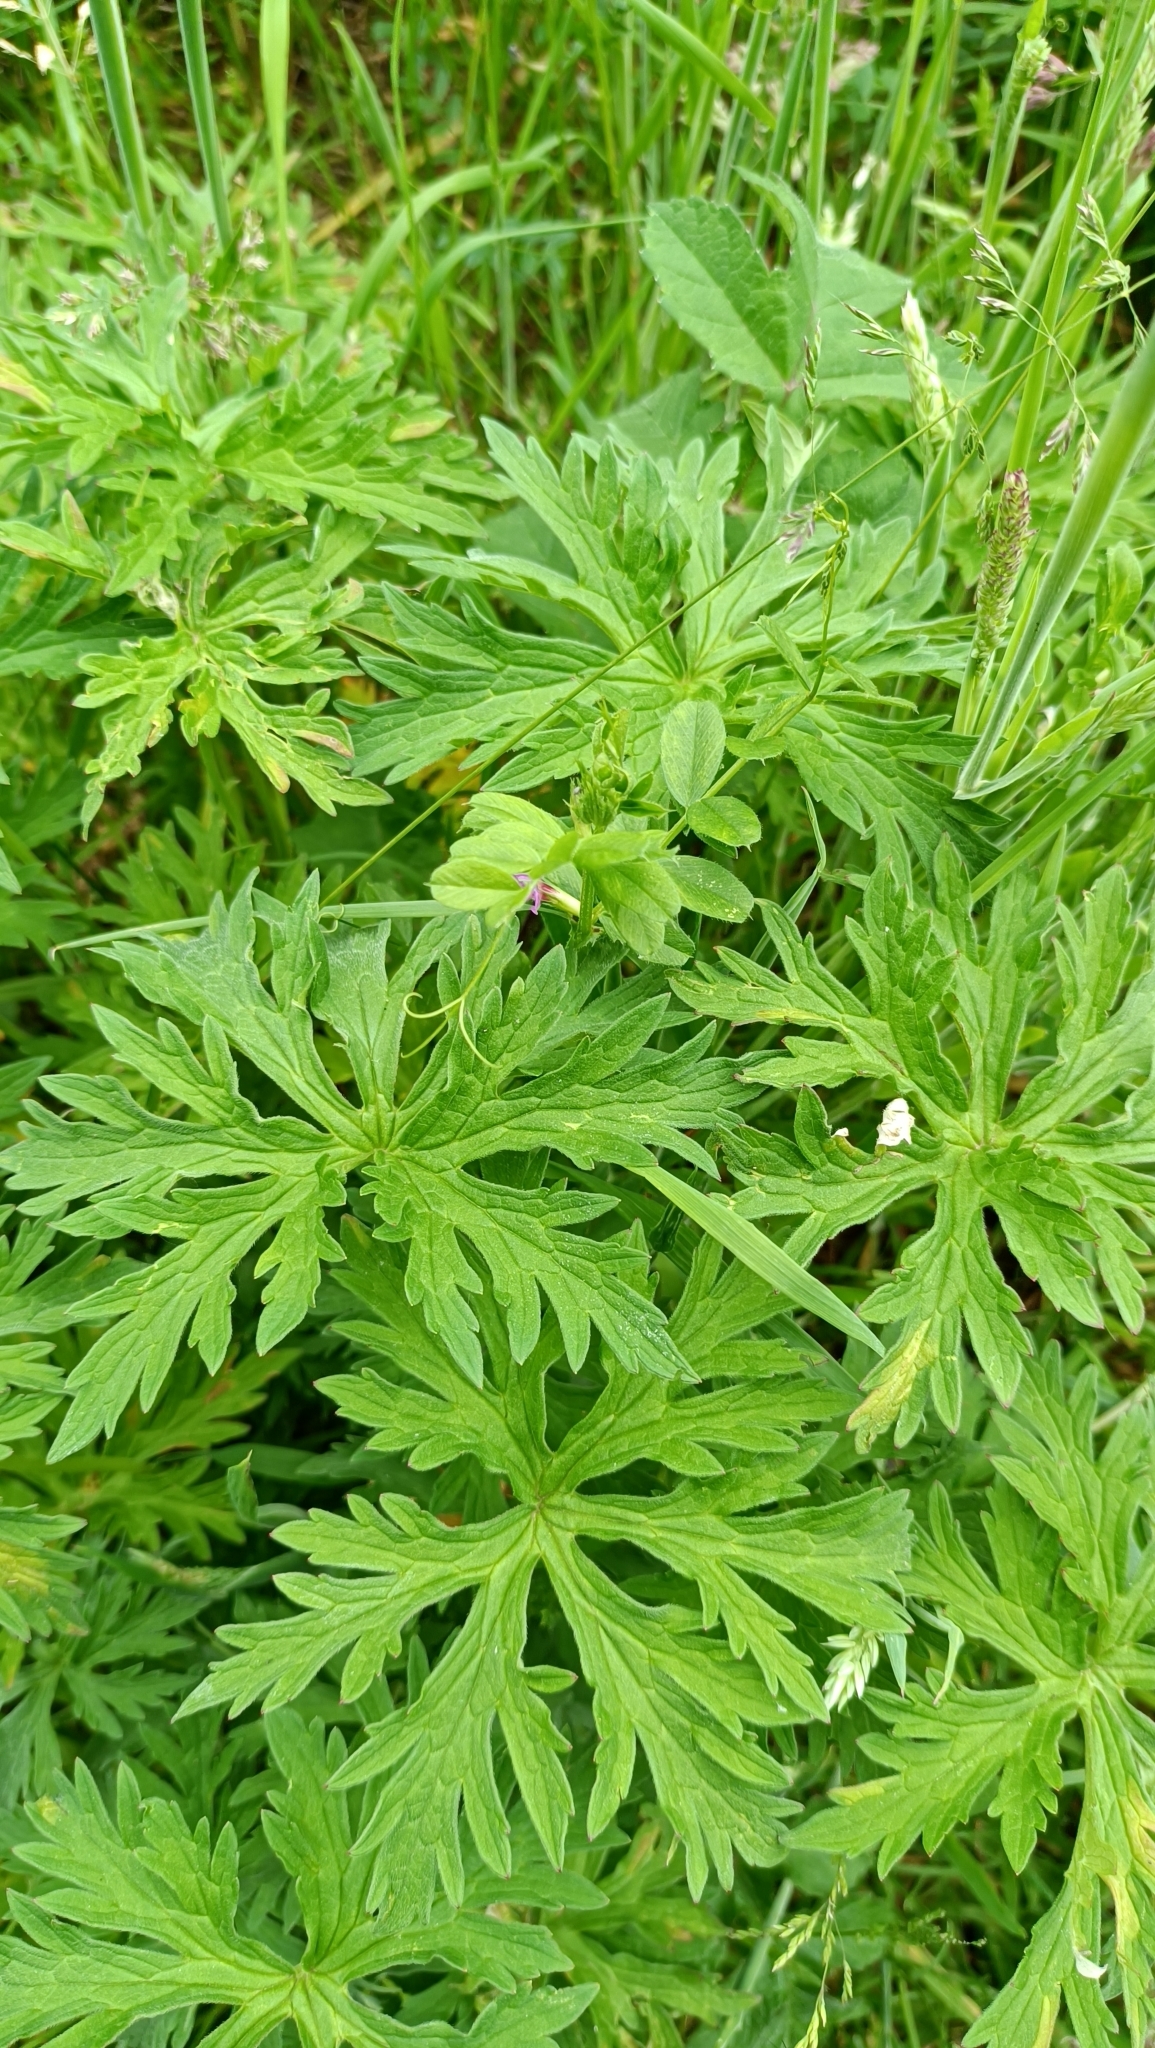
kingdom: Plantae
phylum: Tracheophyta
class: Magnoliopsida
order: Geraniales
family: Geraniaceae
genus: Geranium
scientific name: Geranium pratense
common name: Meadow crane's-bill
